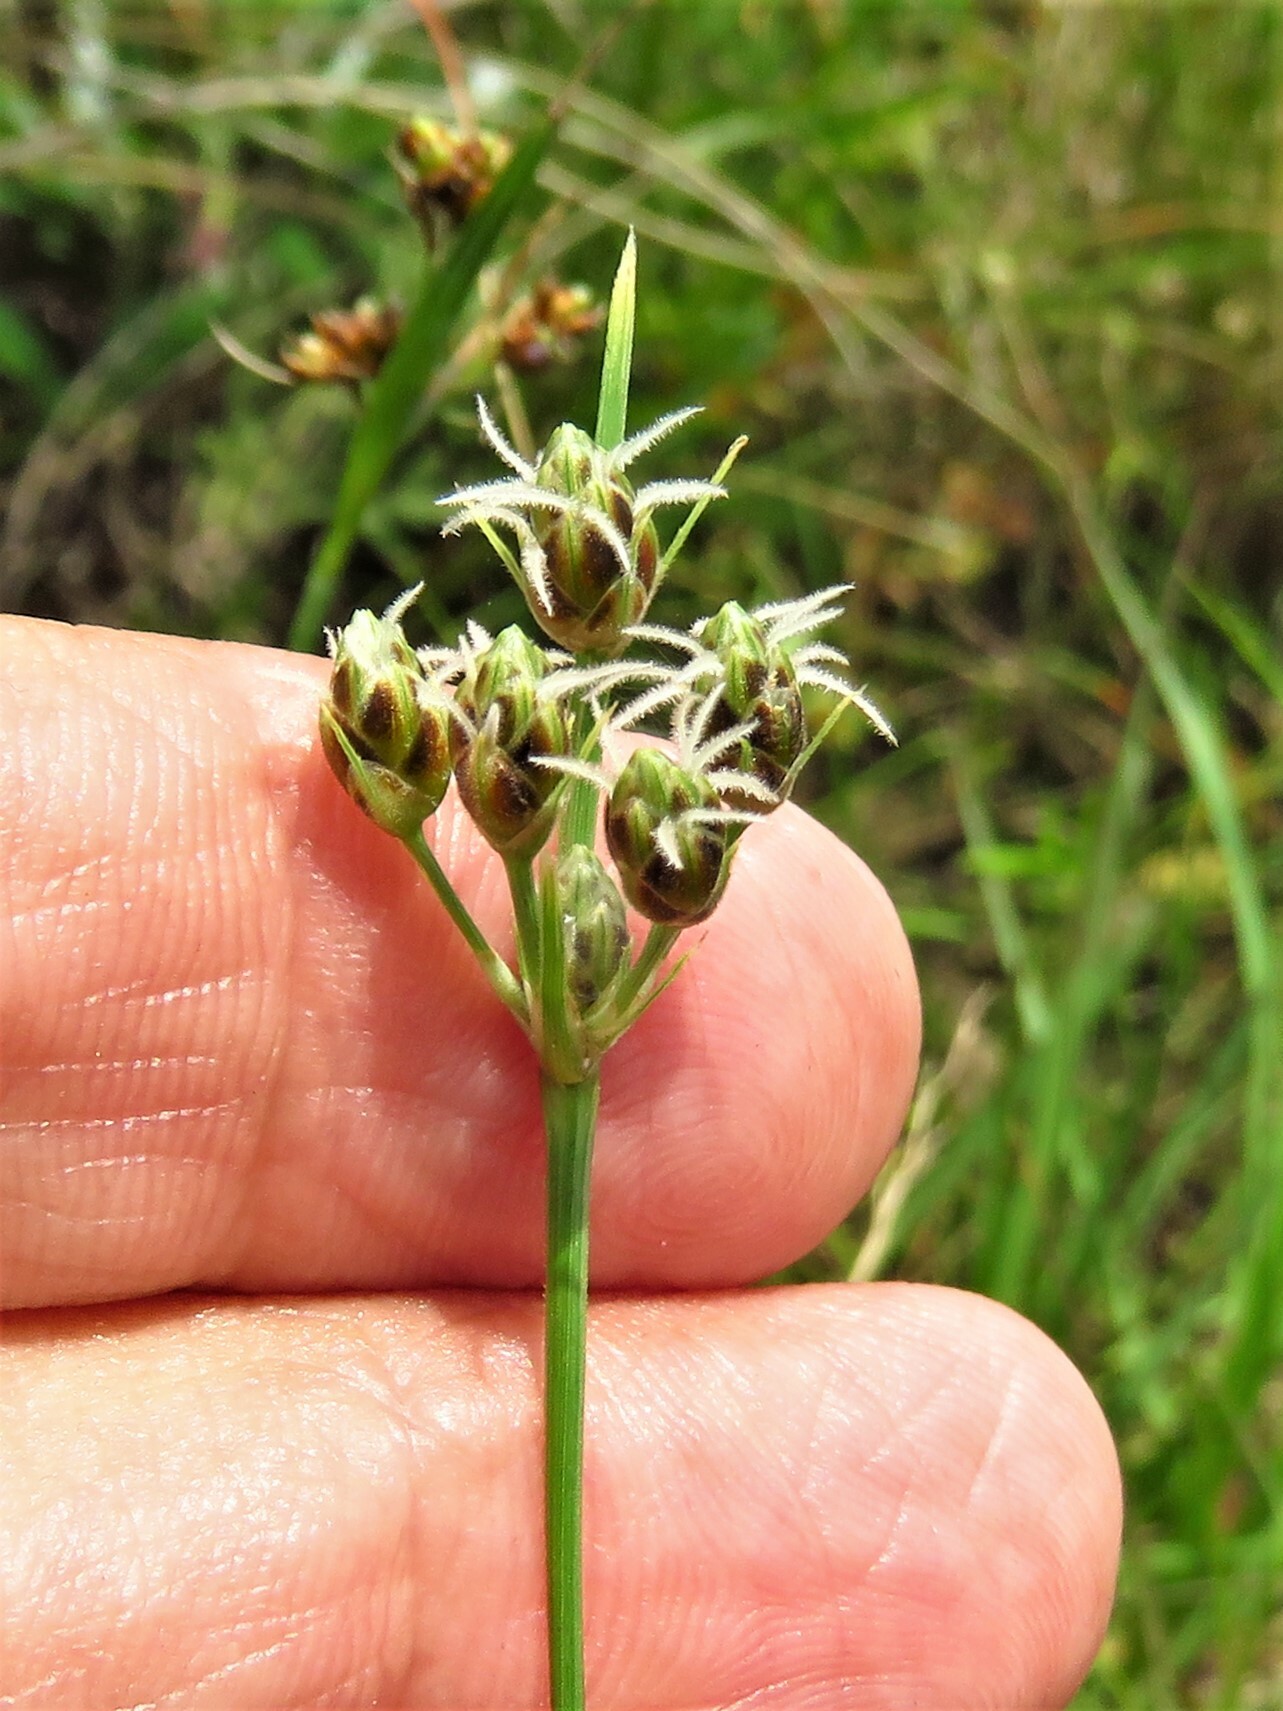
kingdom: Plantae
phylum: Tracheophyta
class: Liliopsida
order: Poales
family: Cyperaceae
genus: Fimbristylis
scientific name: Fimbristylis puberula
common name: Hairy fimbristylis
